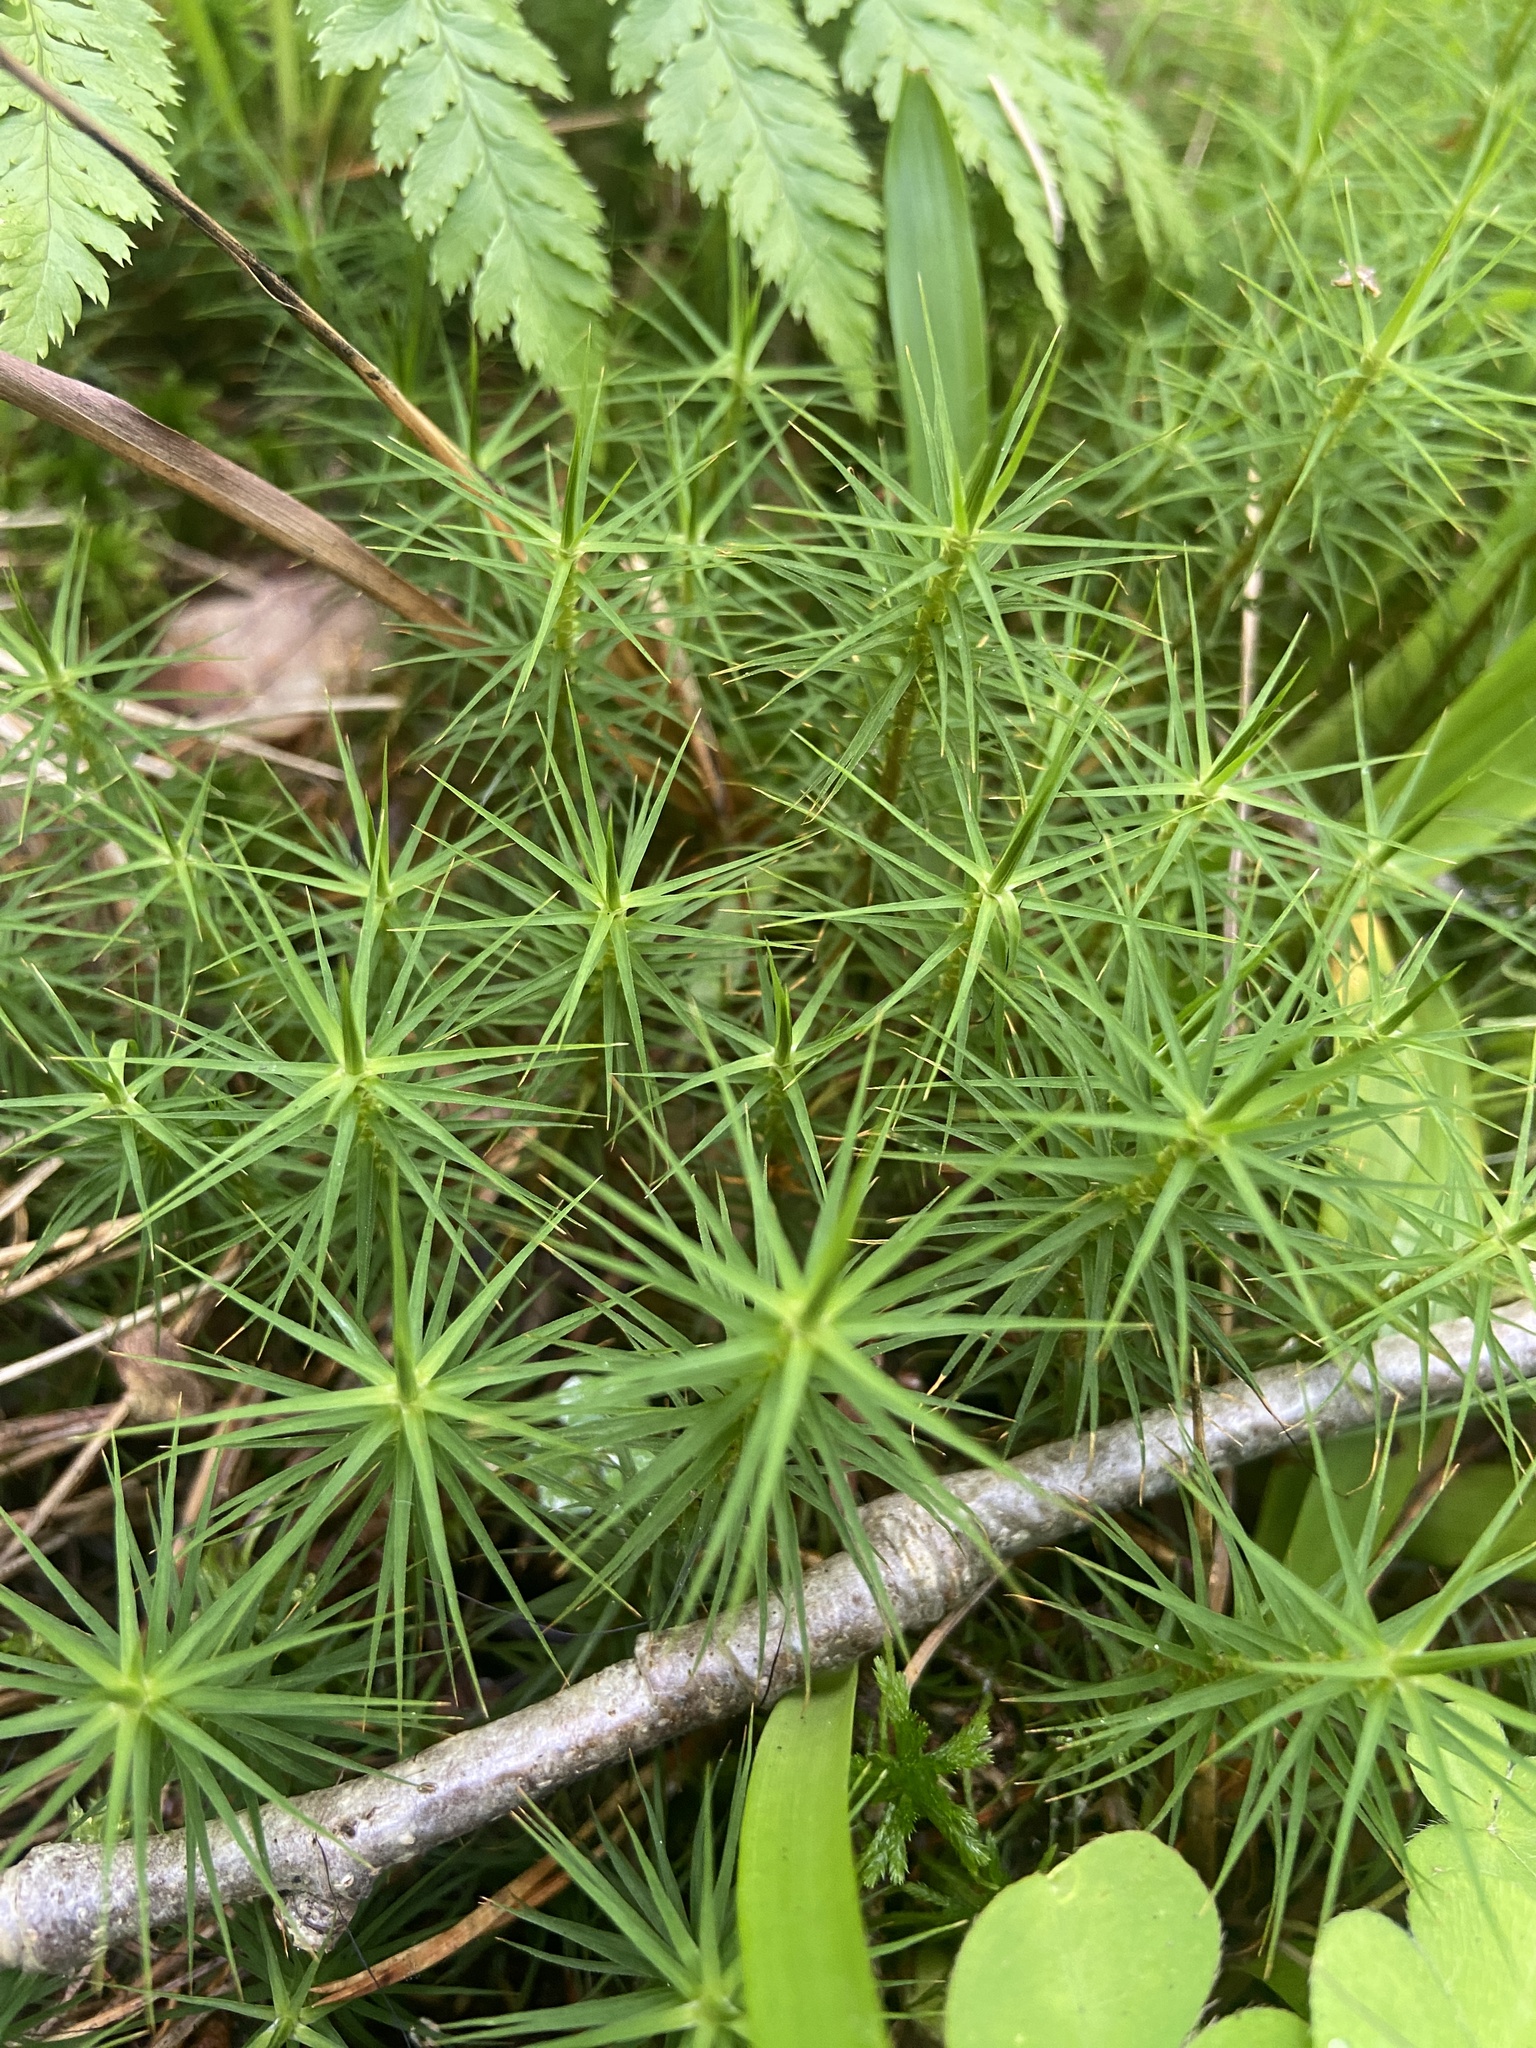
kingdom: Plantae
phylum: Bryophyta
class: Polytrichopsida
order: Polytrichales
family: Polytrichaceae
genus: Polytrichum
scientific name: Polytrichum commune
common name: Common haircap
